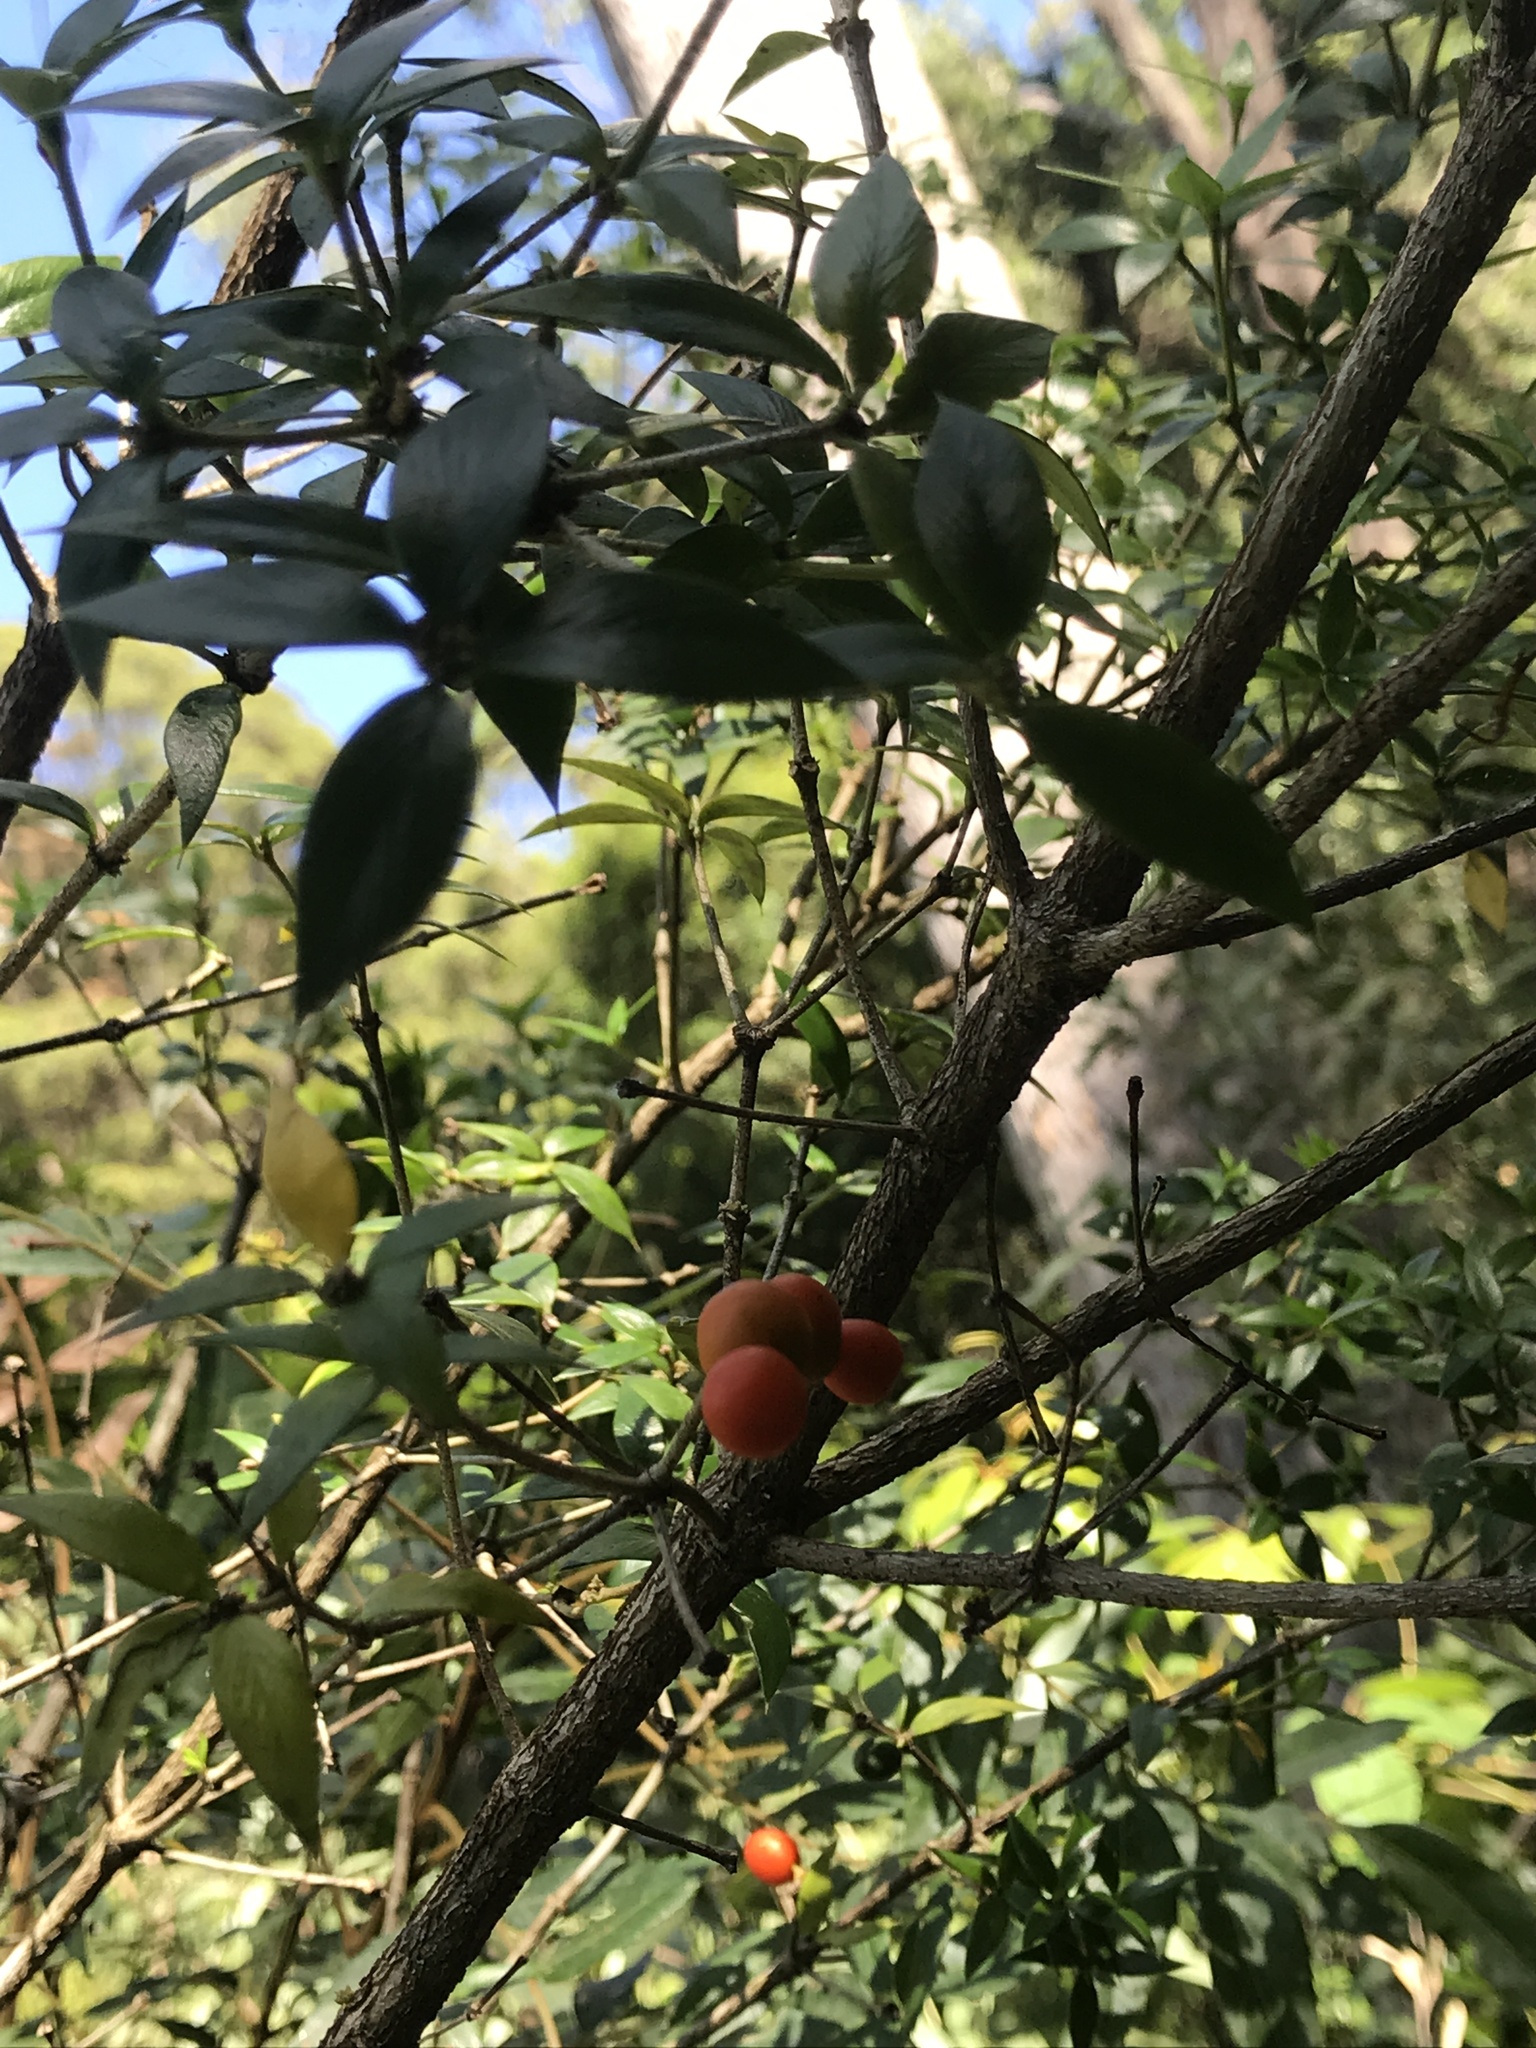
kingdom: Plantae
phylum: Tracheophyta
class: Magnoliopsida
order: Gentianales
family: Apocynaceae
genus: Alyxia
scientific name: Alyxia ruscifolia
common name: Chainfruit
